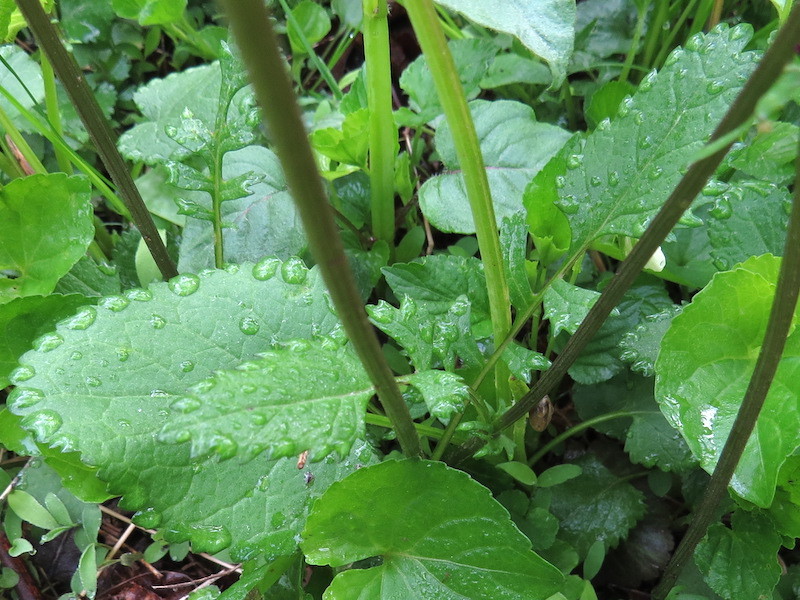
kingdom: Plantae
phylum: Tracheophyta
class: Magnoliopsida
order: Asterales
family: Asteraceae
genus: Packera
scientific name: Packera aurea
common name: Golden groundsel
